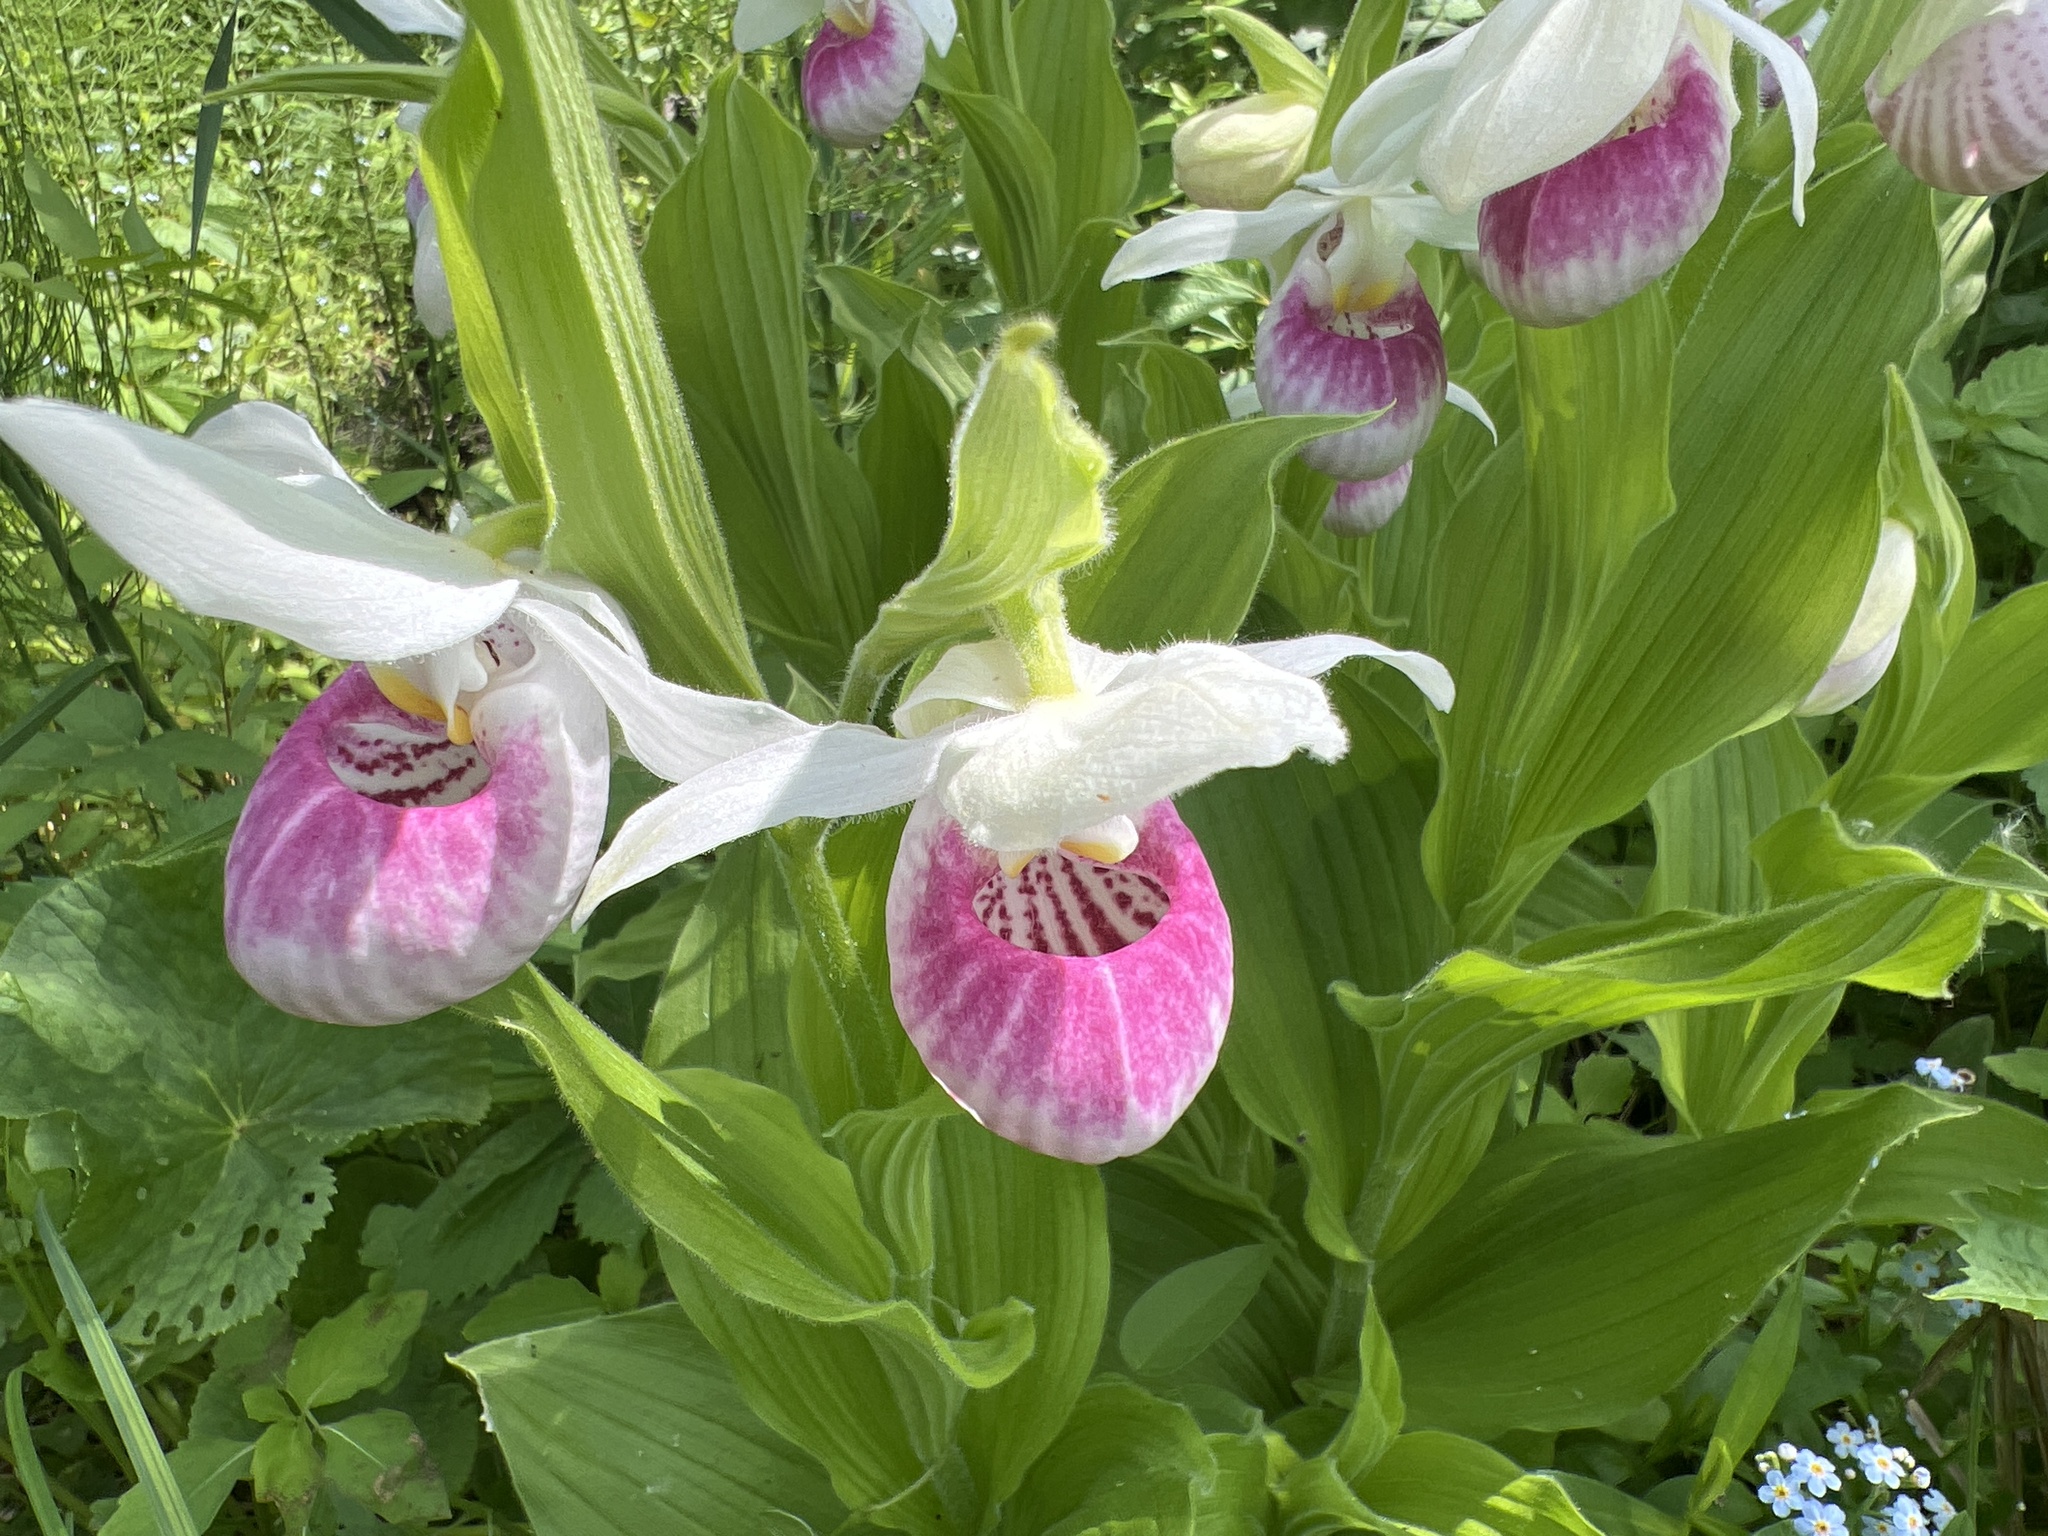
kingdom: Plantae
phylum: Tracheophyta
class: Liliopsida
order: Asparagales
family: Orchidaceae
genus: Cypripedium
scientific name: Cypripedium reginae
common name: Queen lady's-slipper
